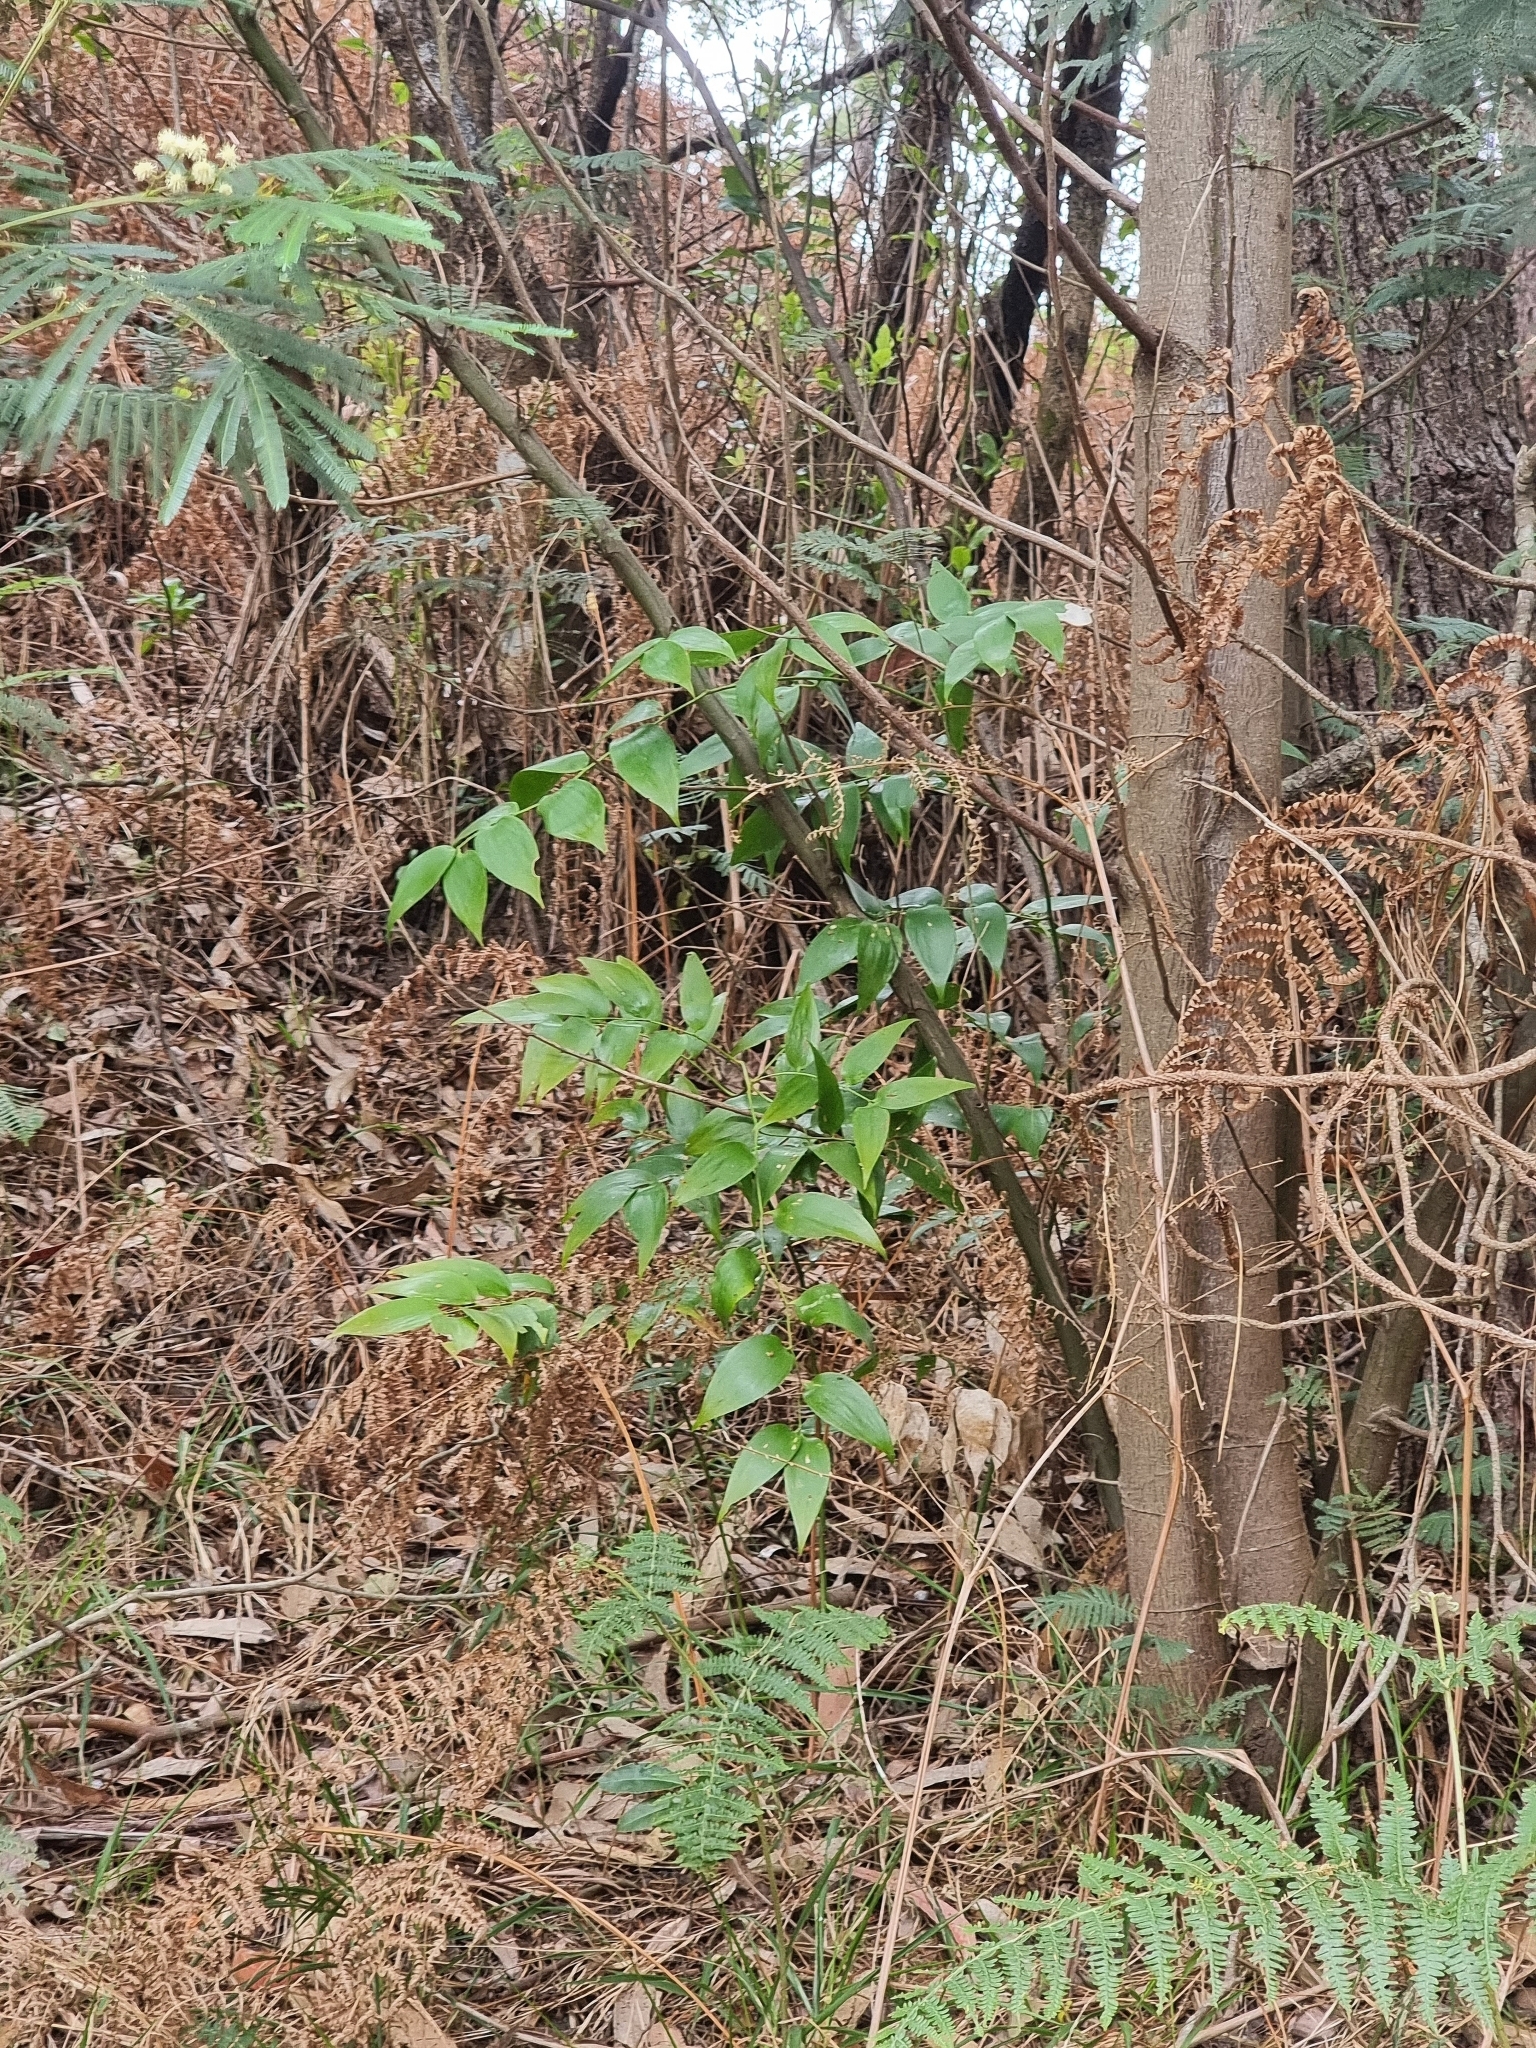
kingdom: Plantae
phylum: Tracheophyta
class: Liliopsida
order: Asparagales
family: Asparagaceae
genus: Semele
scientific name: Semele androgyna
